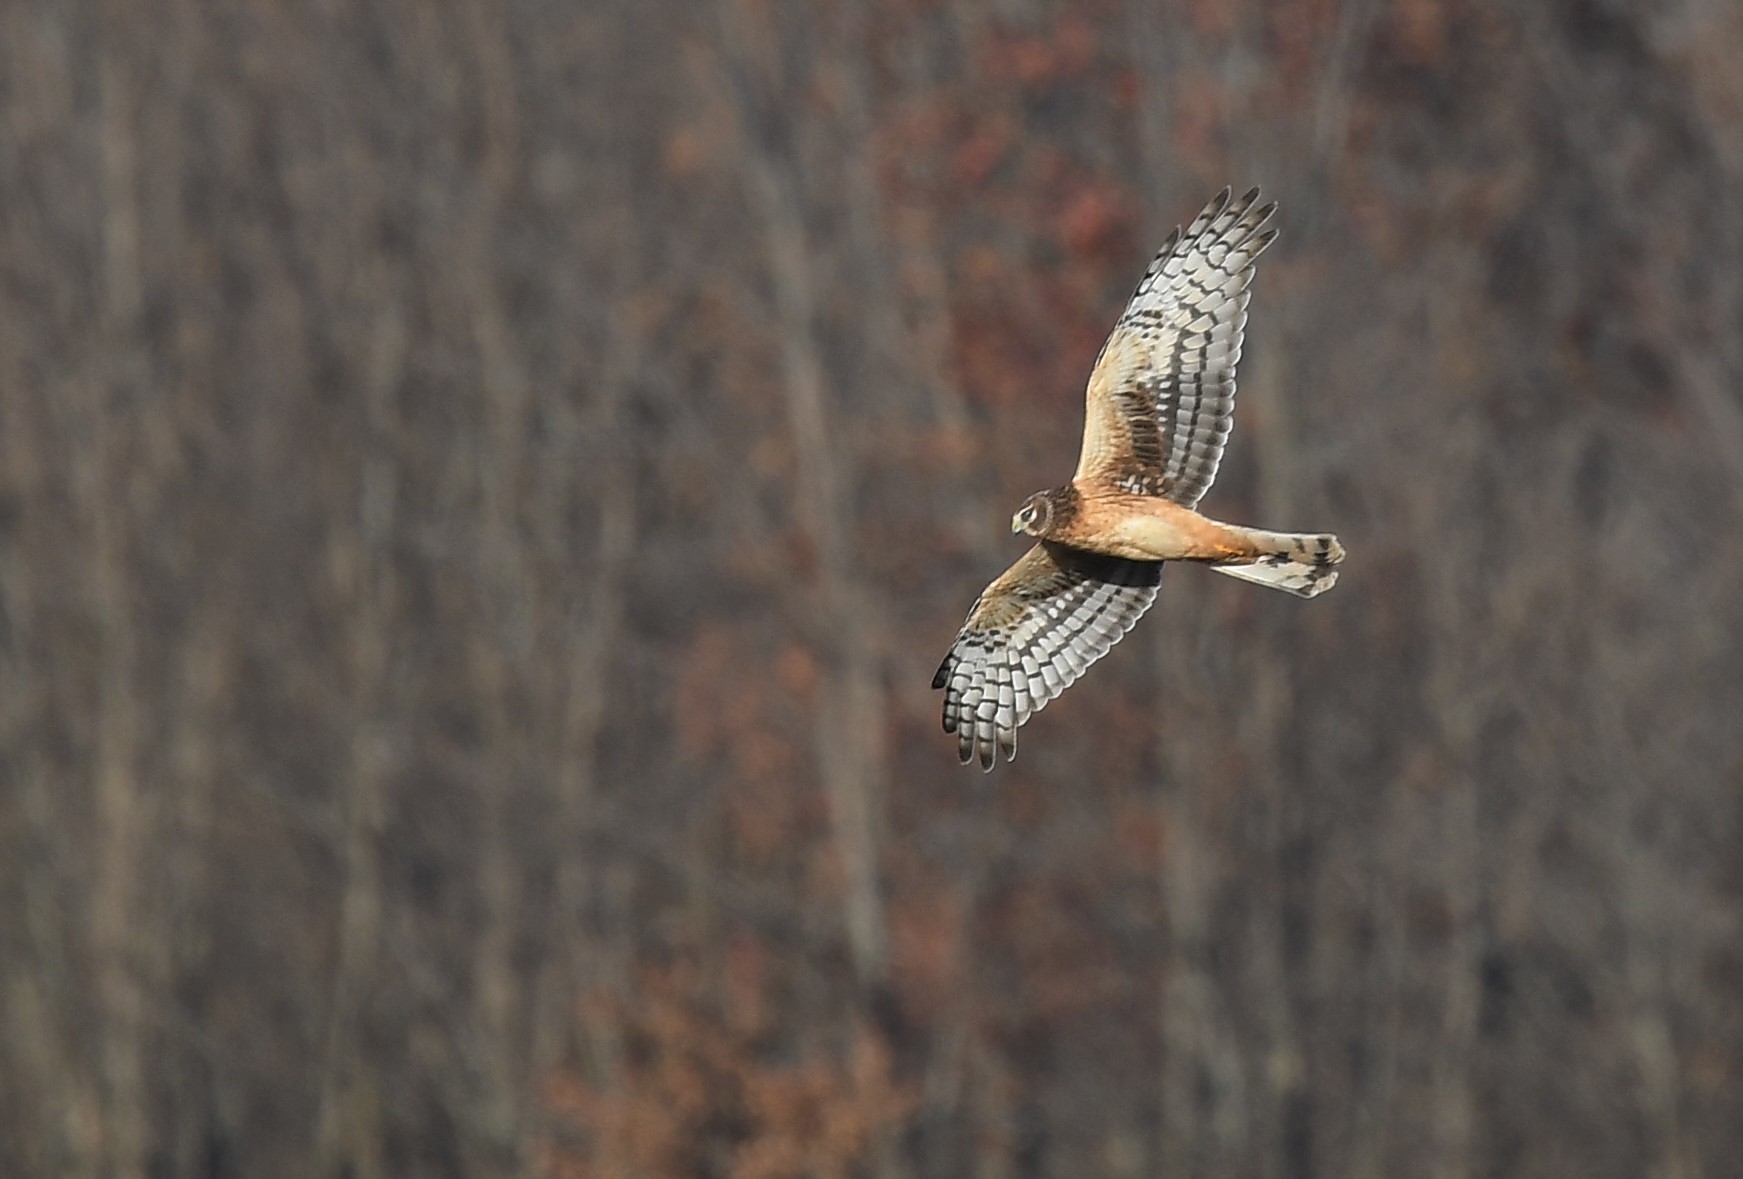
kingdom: Animalia
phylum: Chordata
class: Aves
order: Accipitriformes
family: Accipitridae
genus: Circus
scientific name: Circus cyaneus
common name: Hen harrier
